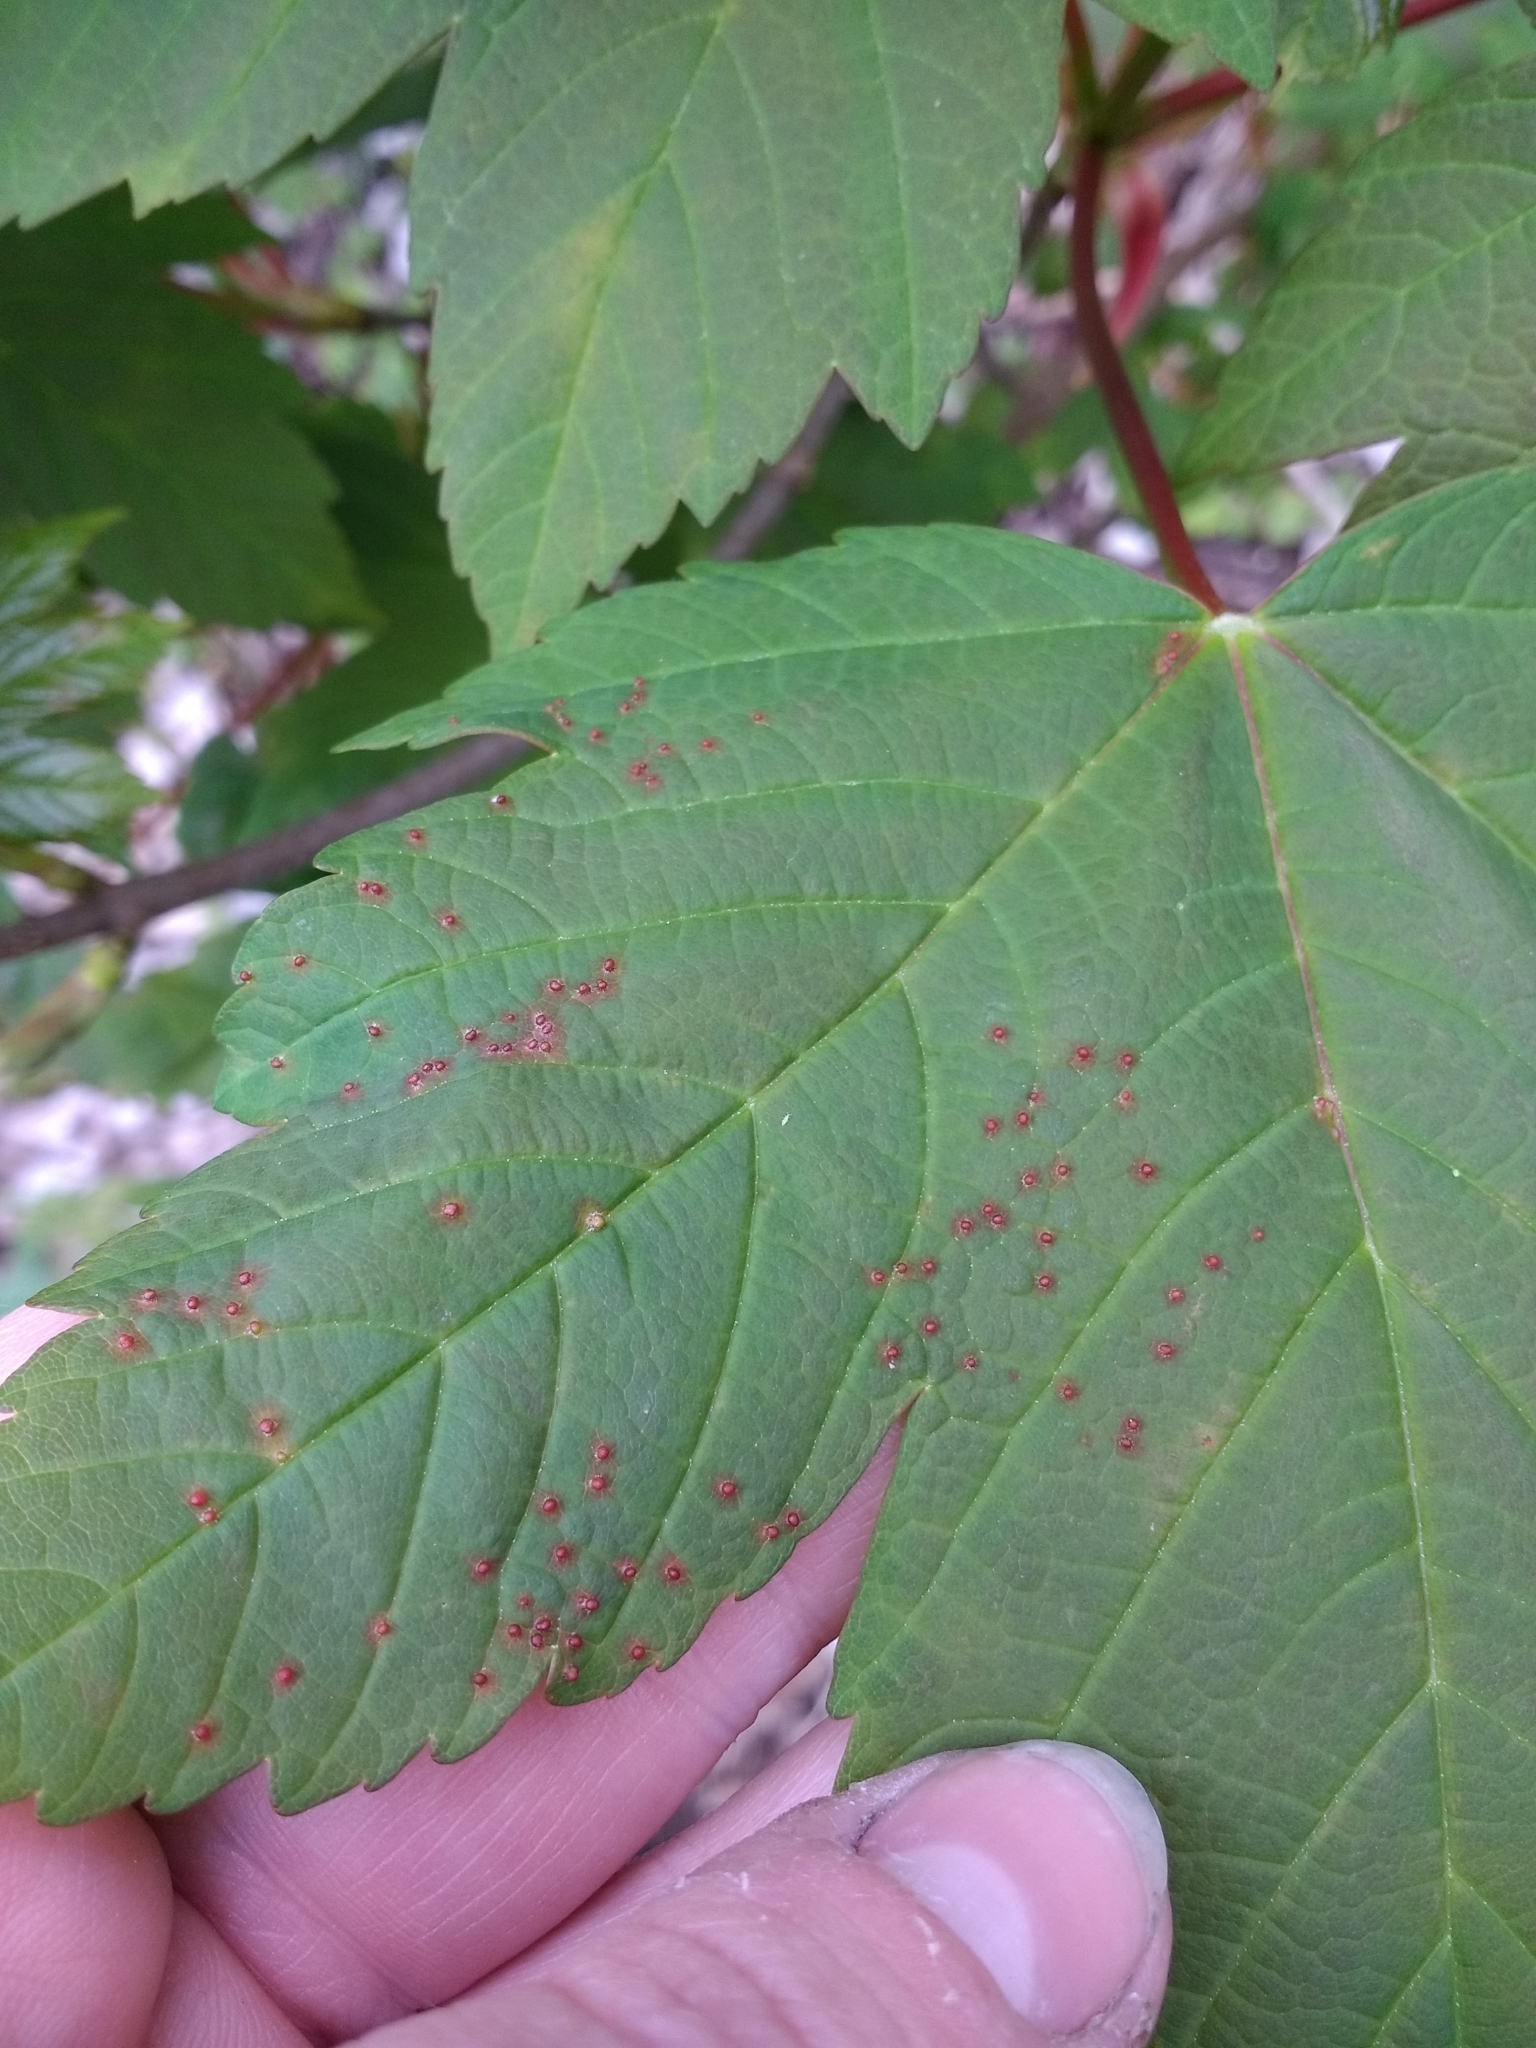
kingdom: Plantae
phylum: Tracheophyta
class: Magnoliopsida
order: Sapindales
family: Sapindaceae
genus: Acer
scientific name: Acer pseudoplatanus
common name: Sycamore
